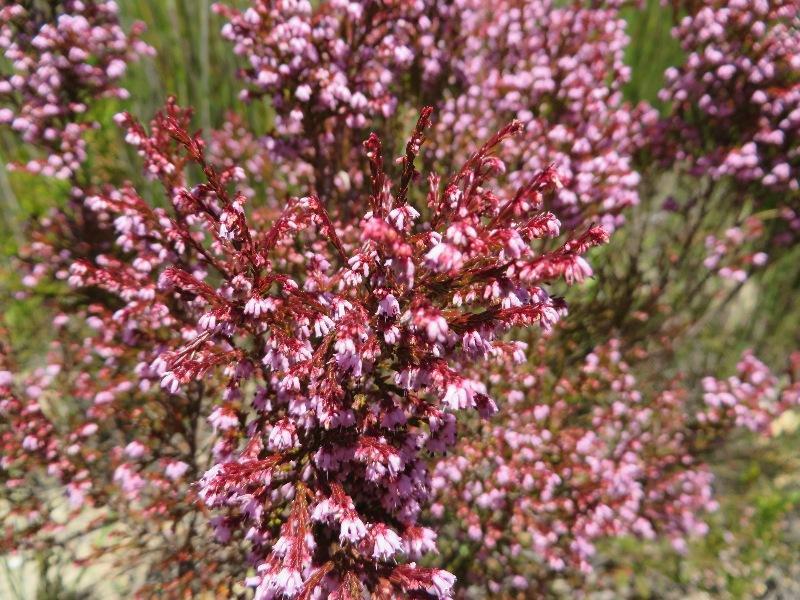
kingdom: Plantae
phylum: Tracheophyta
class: Magnoliopsida
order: Ericales
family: Ericaceae
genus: Erica
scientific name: Erica rosacea
